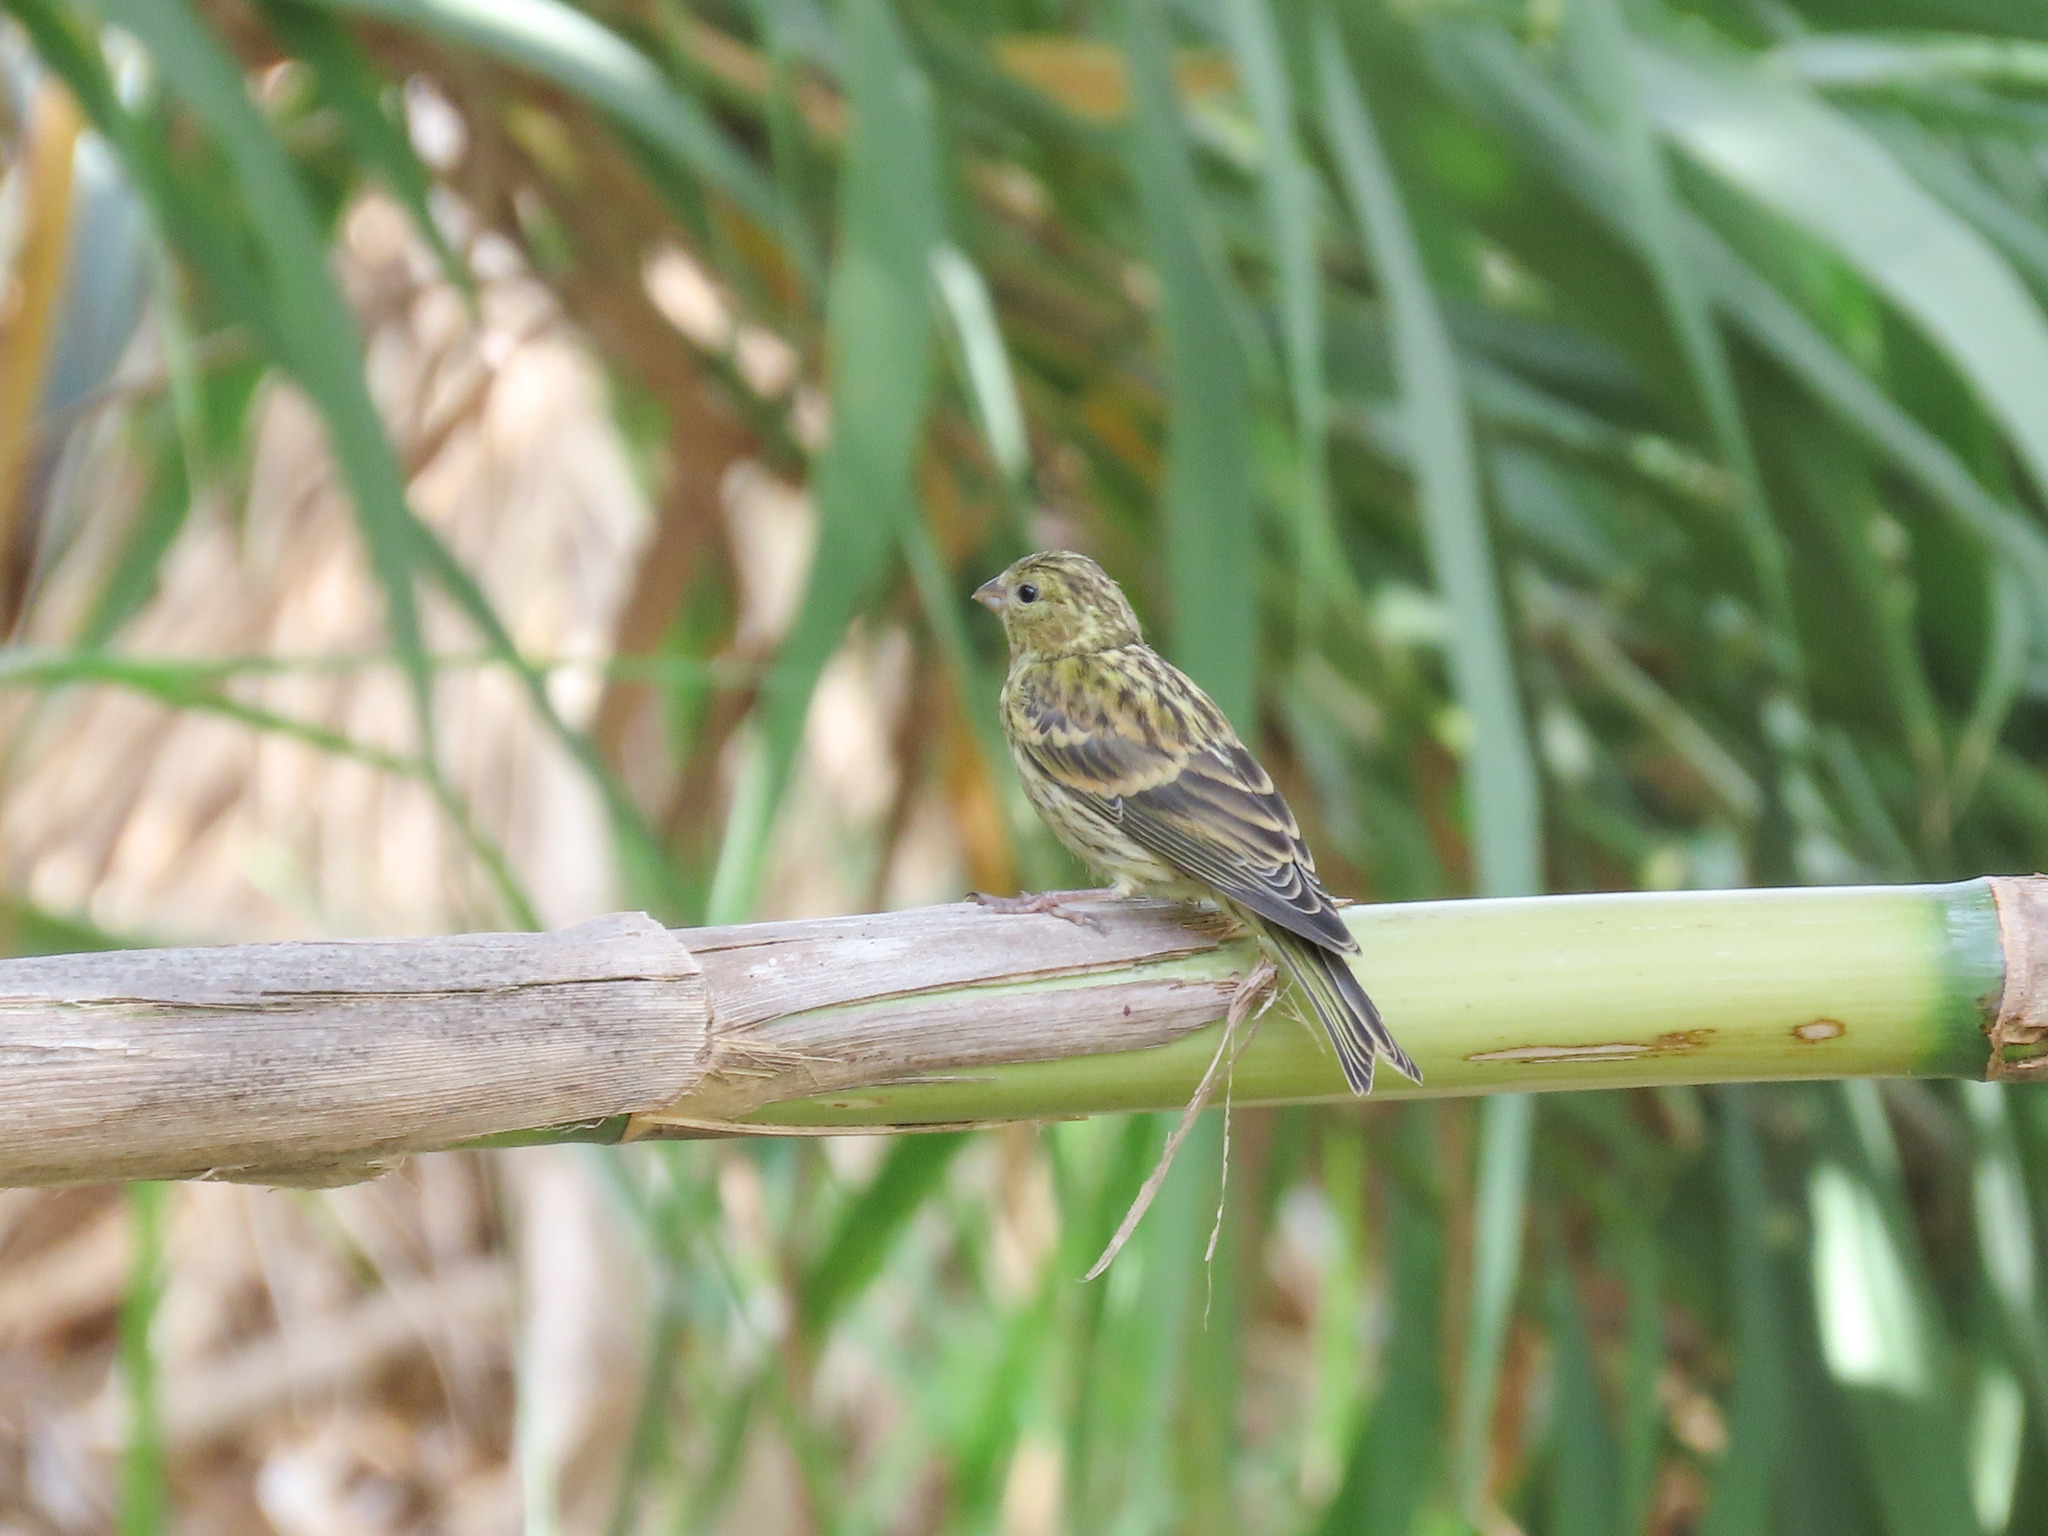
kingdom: Animalia
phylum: Chordata
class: Aves
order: Passeriformes
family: Fringillidae
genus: Serinus
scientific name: Serinus serinus
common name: European serin
